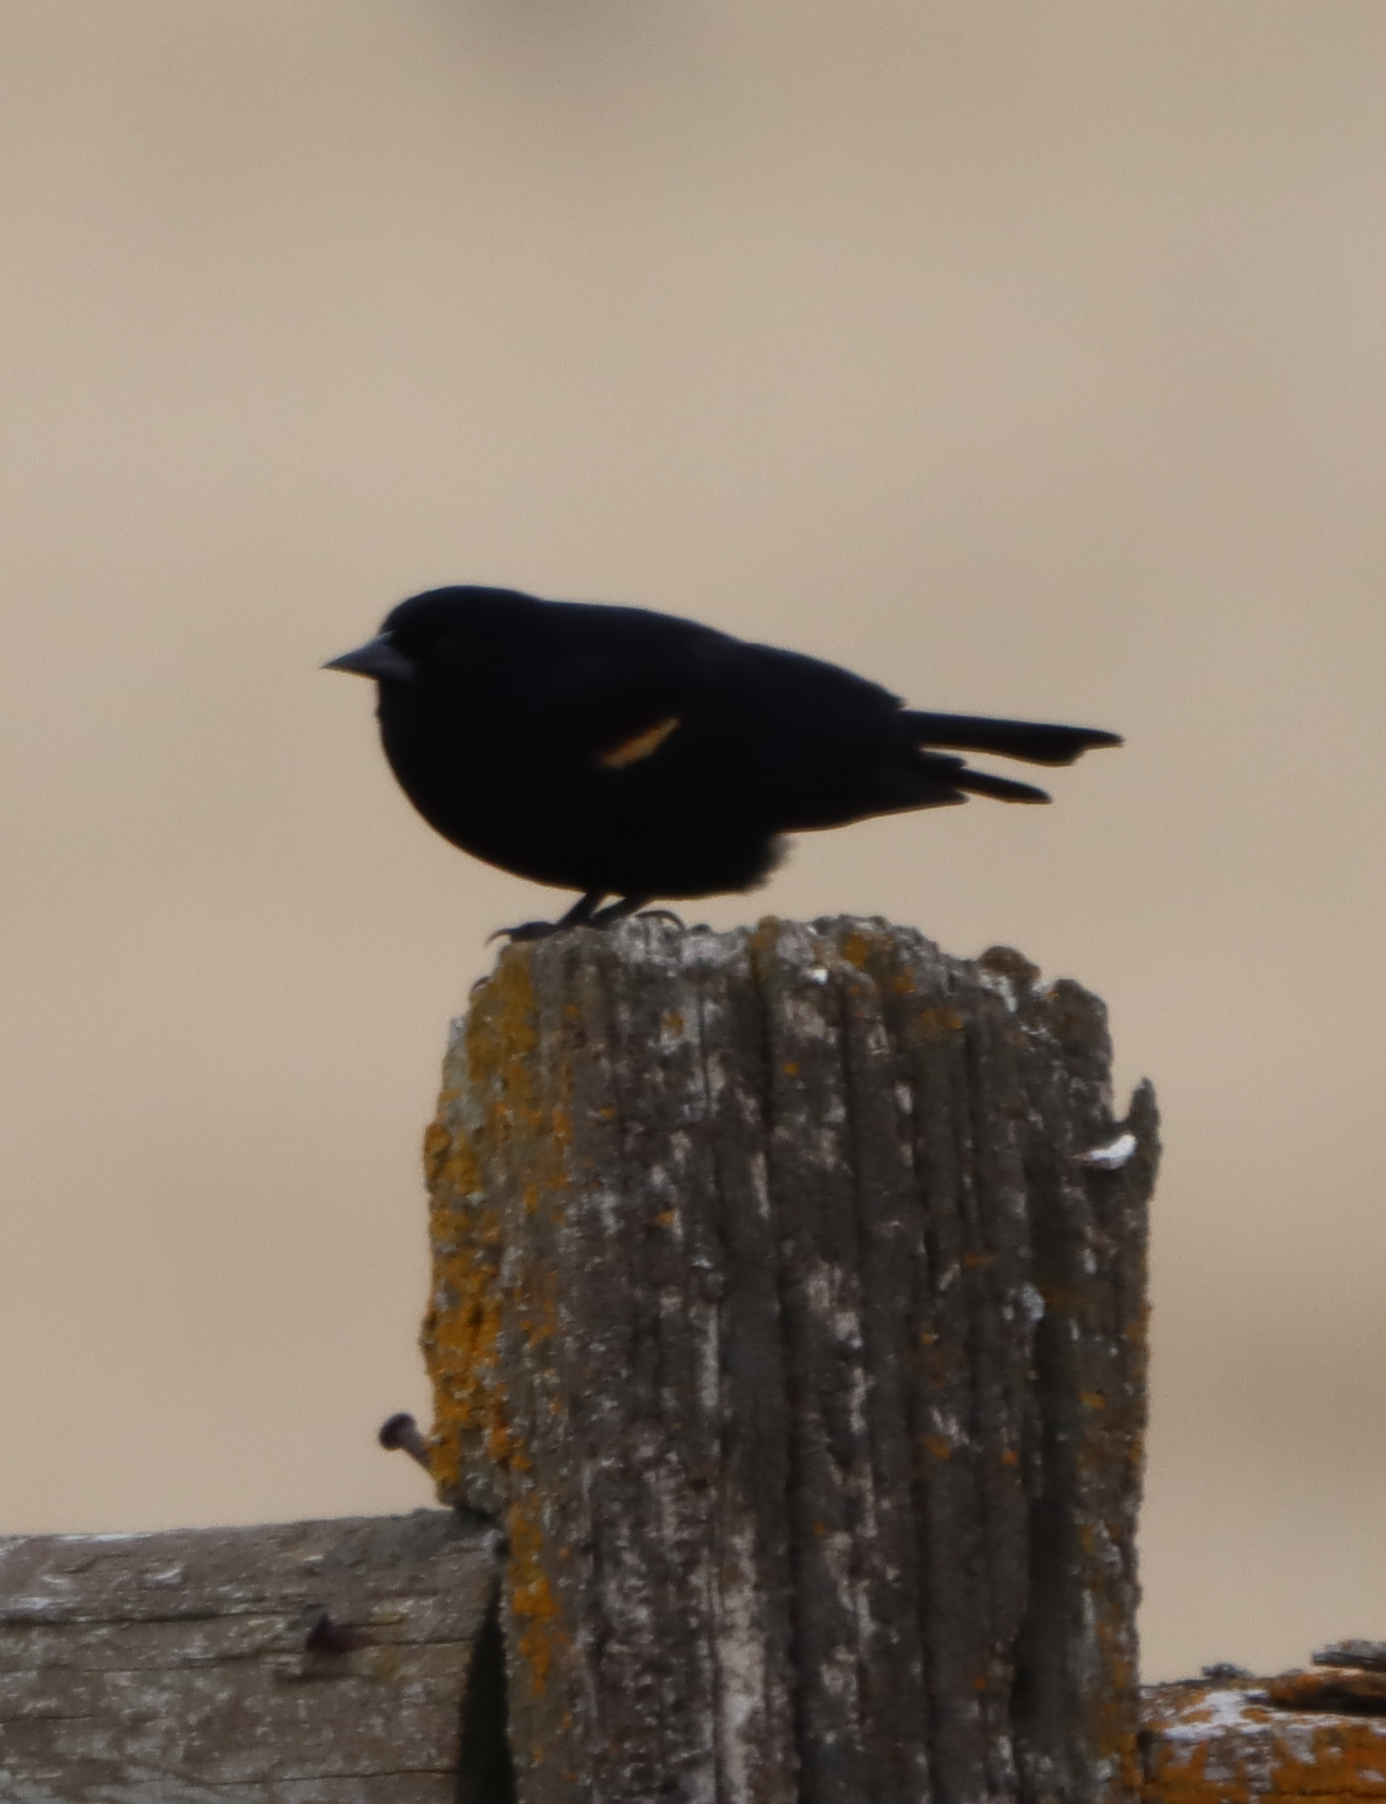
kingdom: Animalia
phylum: Chordata
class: Aves
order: Passeriformes
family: Icteridae
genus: Agelaius
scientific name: Agelaius phoeniceus
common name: Red-winged blackbird
